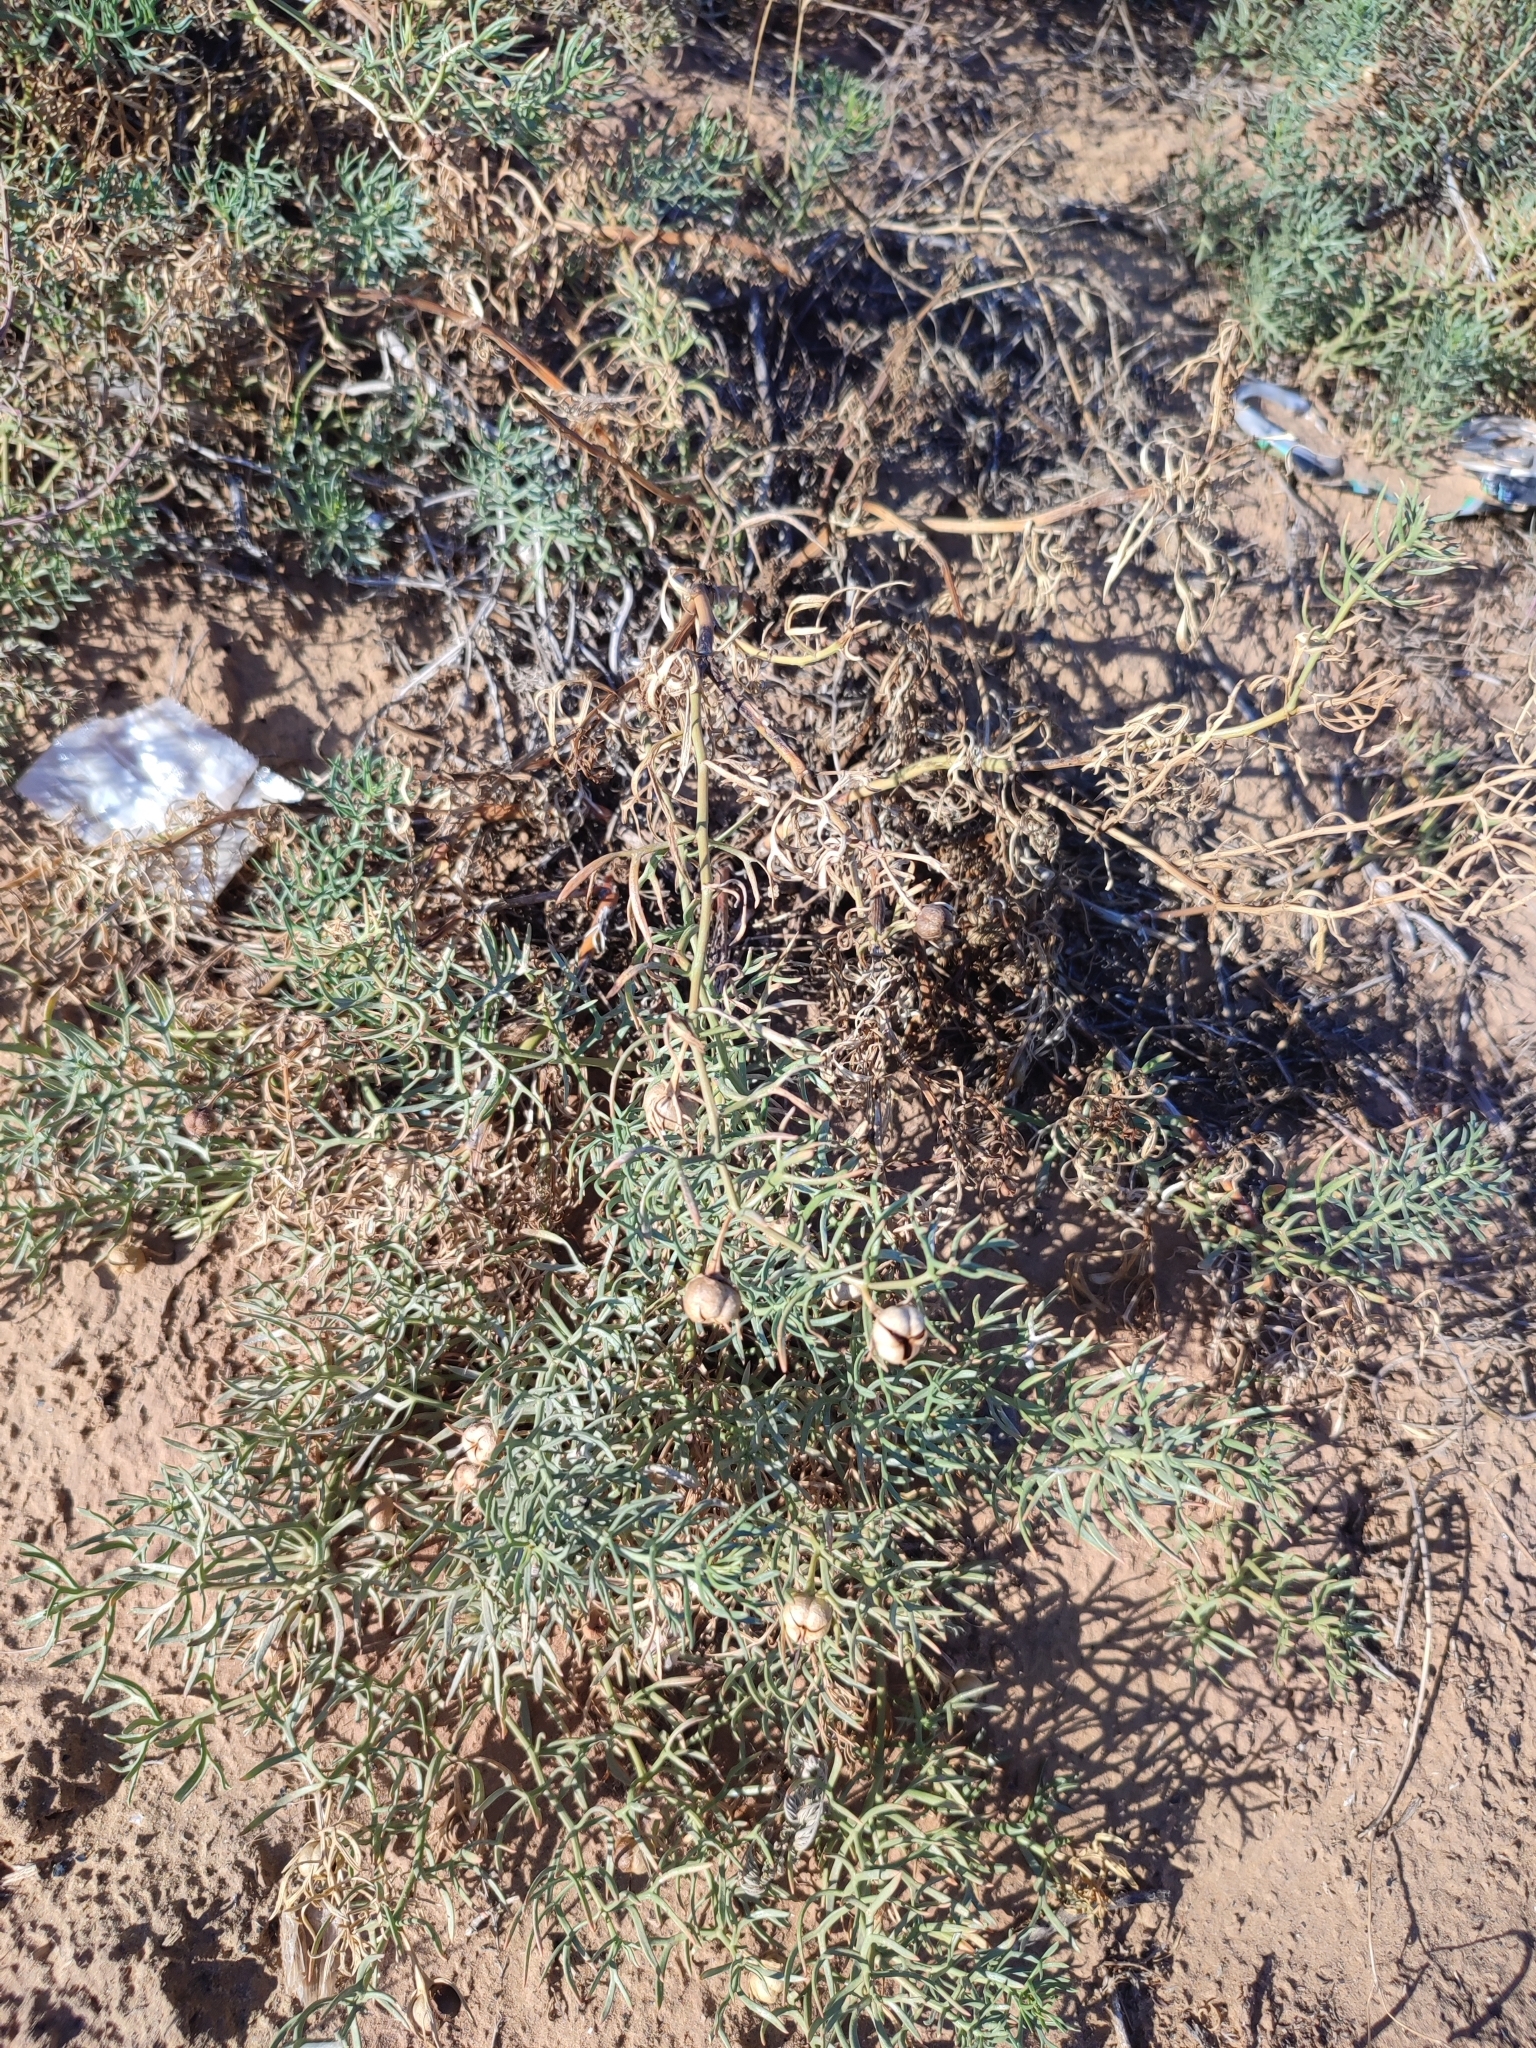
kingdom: Plantae
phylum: Tracheophyta
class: Magnoliopsida
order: Sapindales
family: Tetradiclidaceae
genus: Peganum
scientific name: Peganum harmala
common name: Harmal peganum
